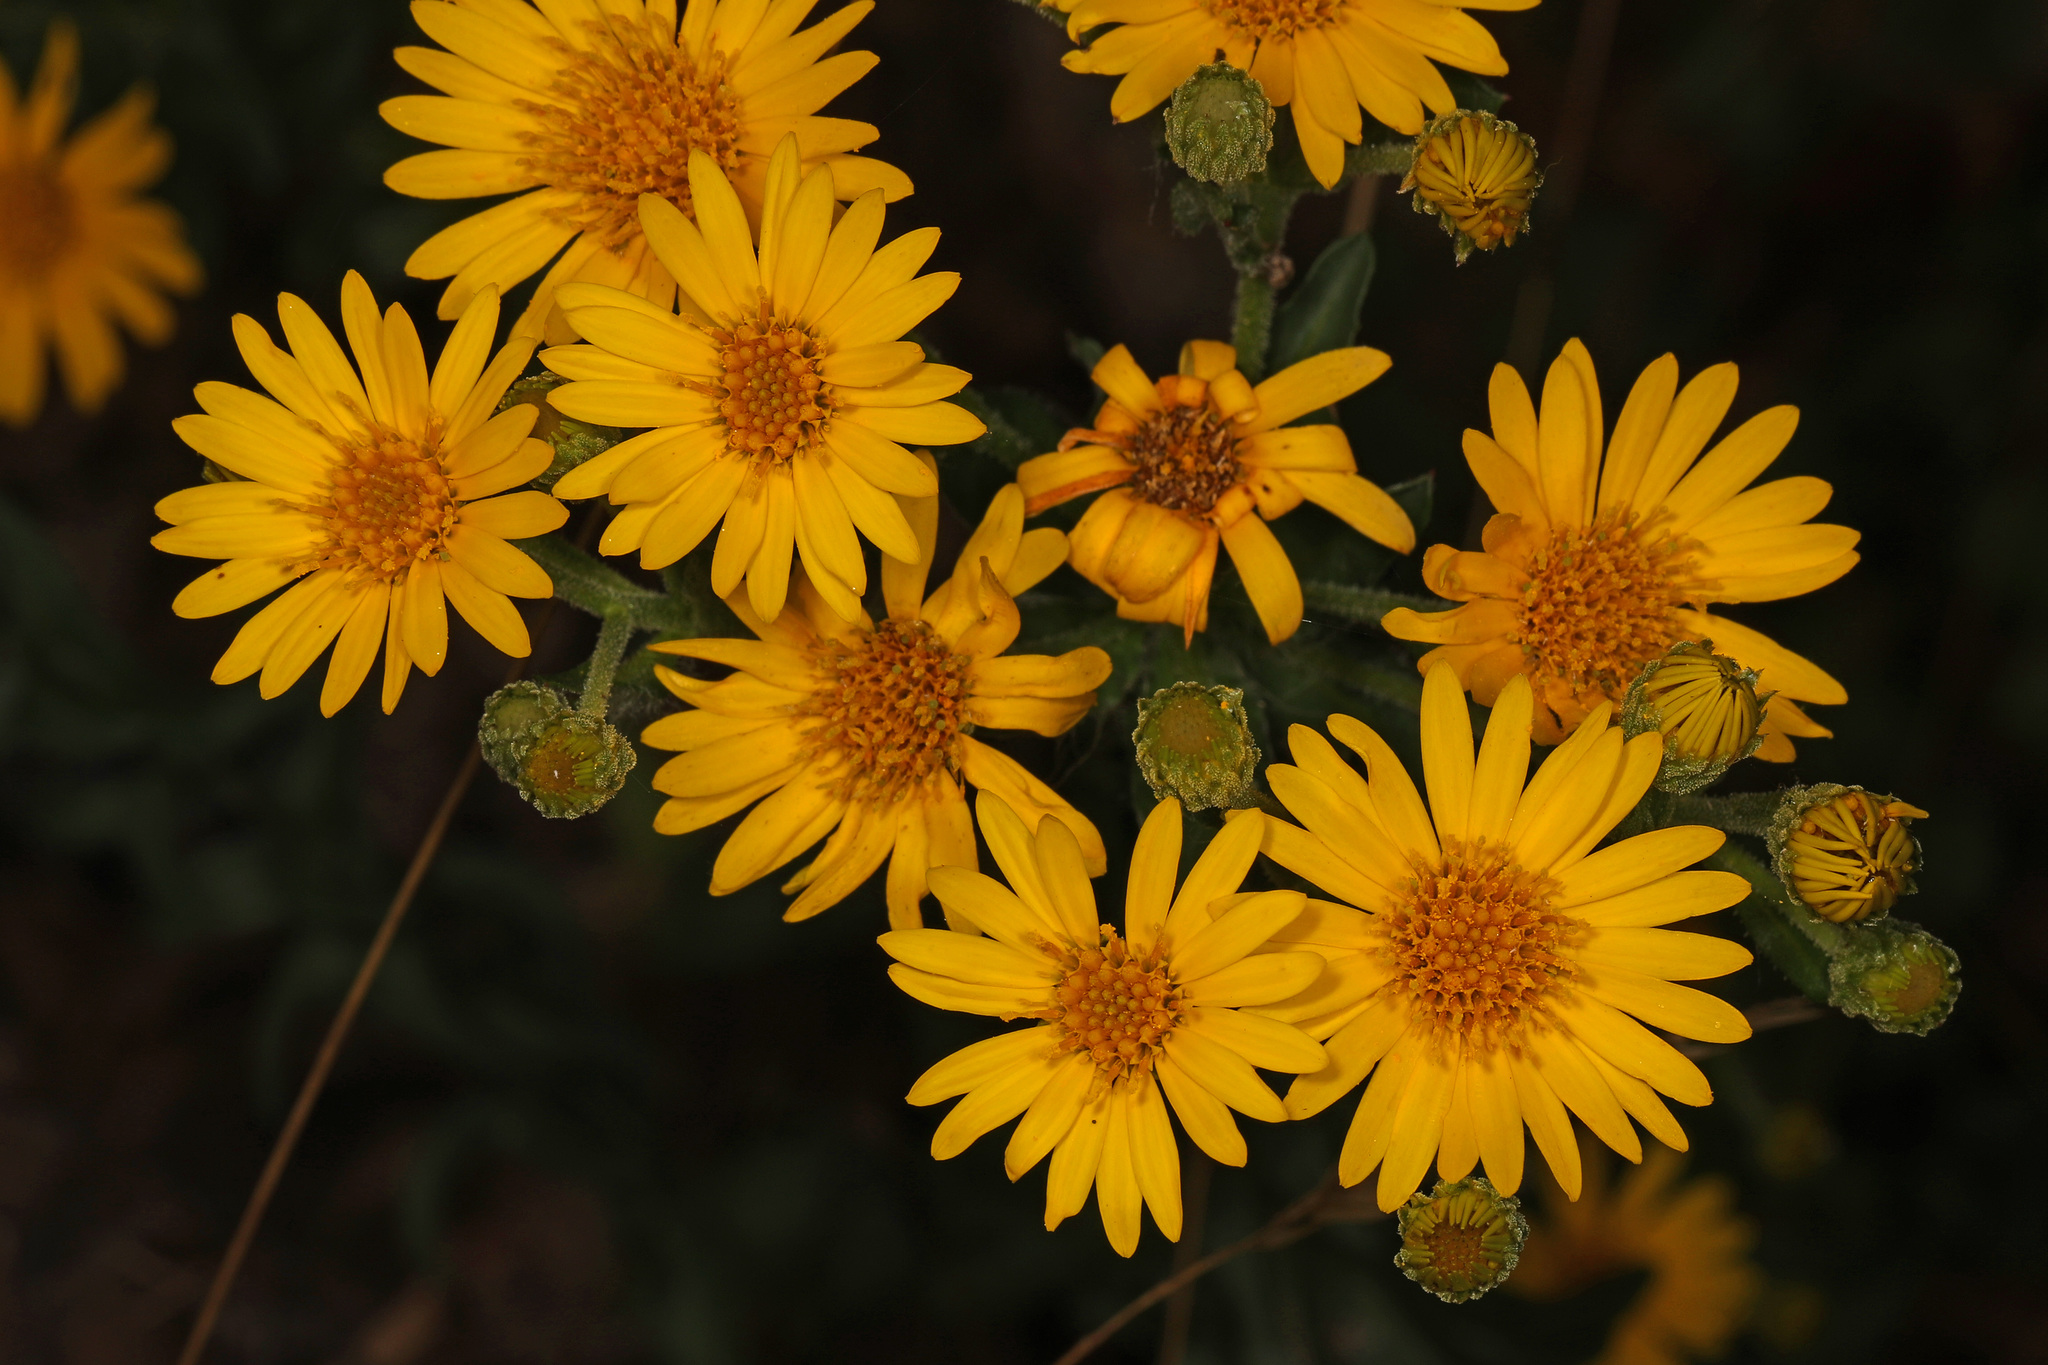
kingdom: Plantae
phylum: Tracheophyta
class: Magnoliopsida
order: Asterales
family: Asteraceae
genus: Chrysopsis
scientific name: Chrysopsis mariana
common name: Maryland golden-aster
